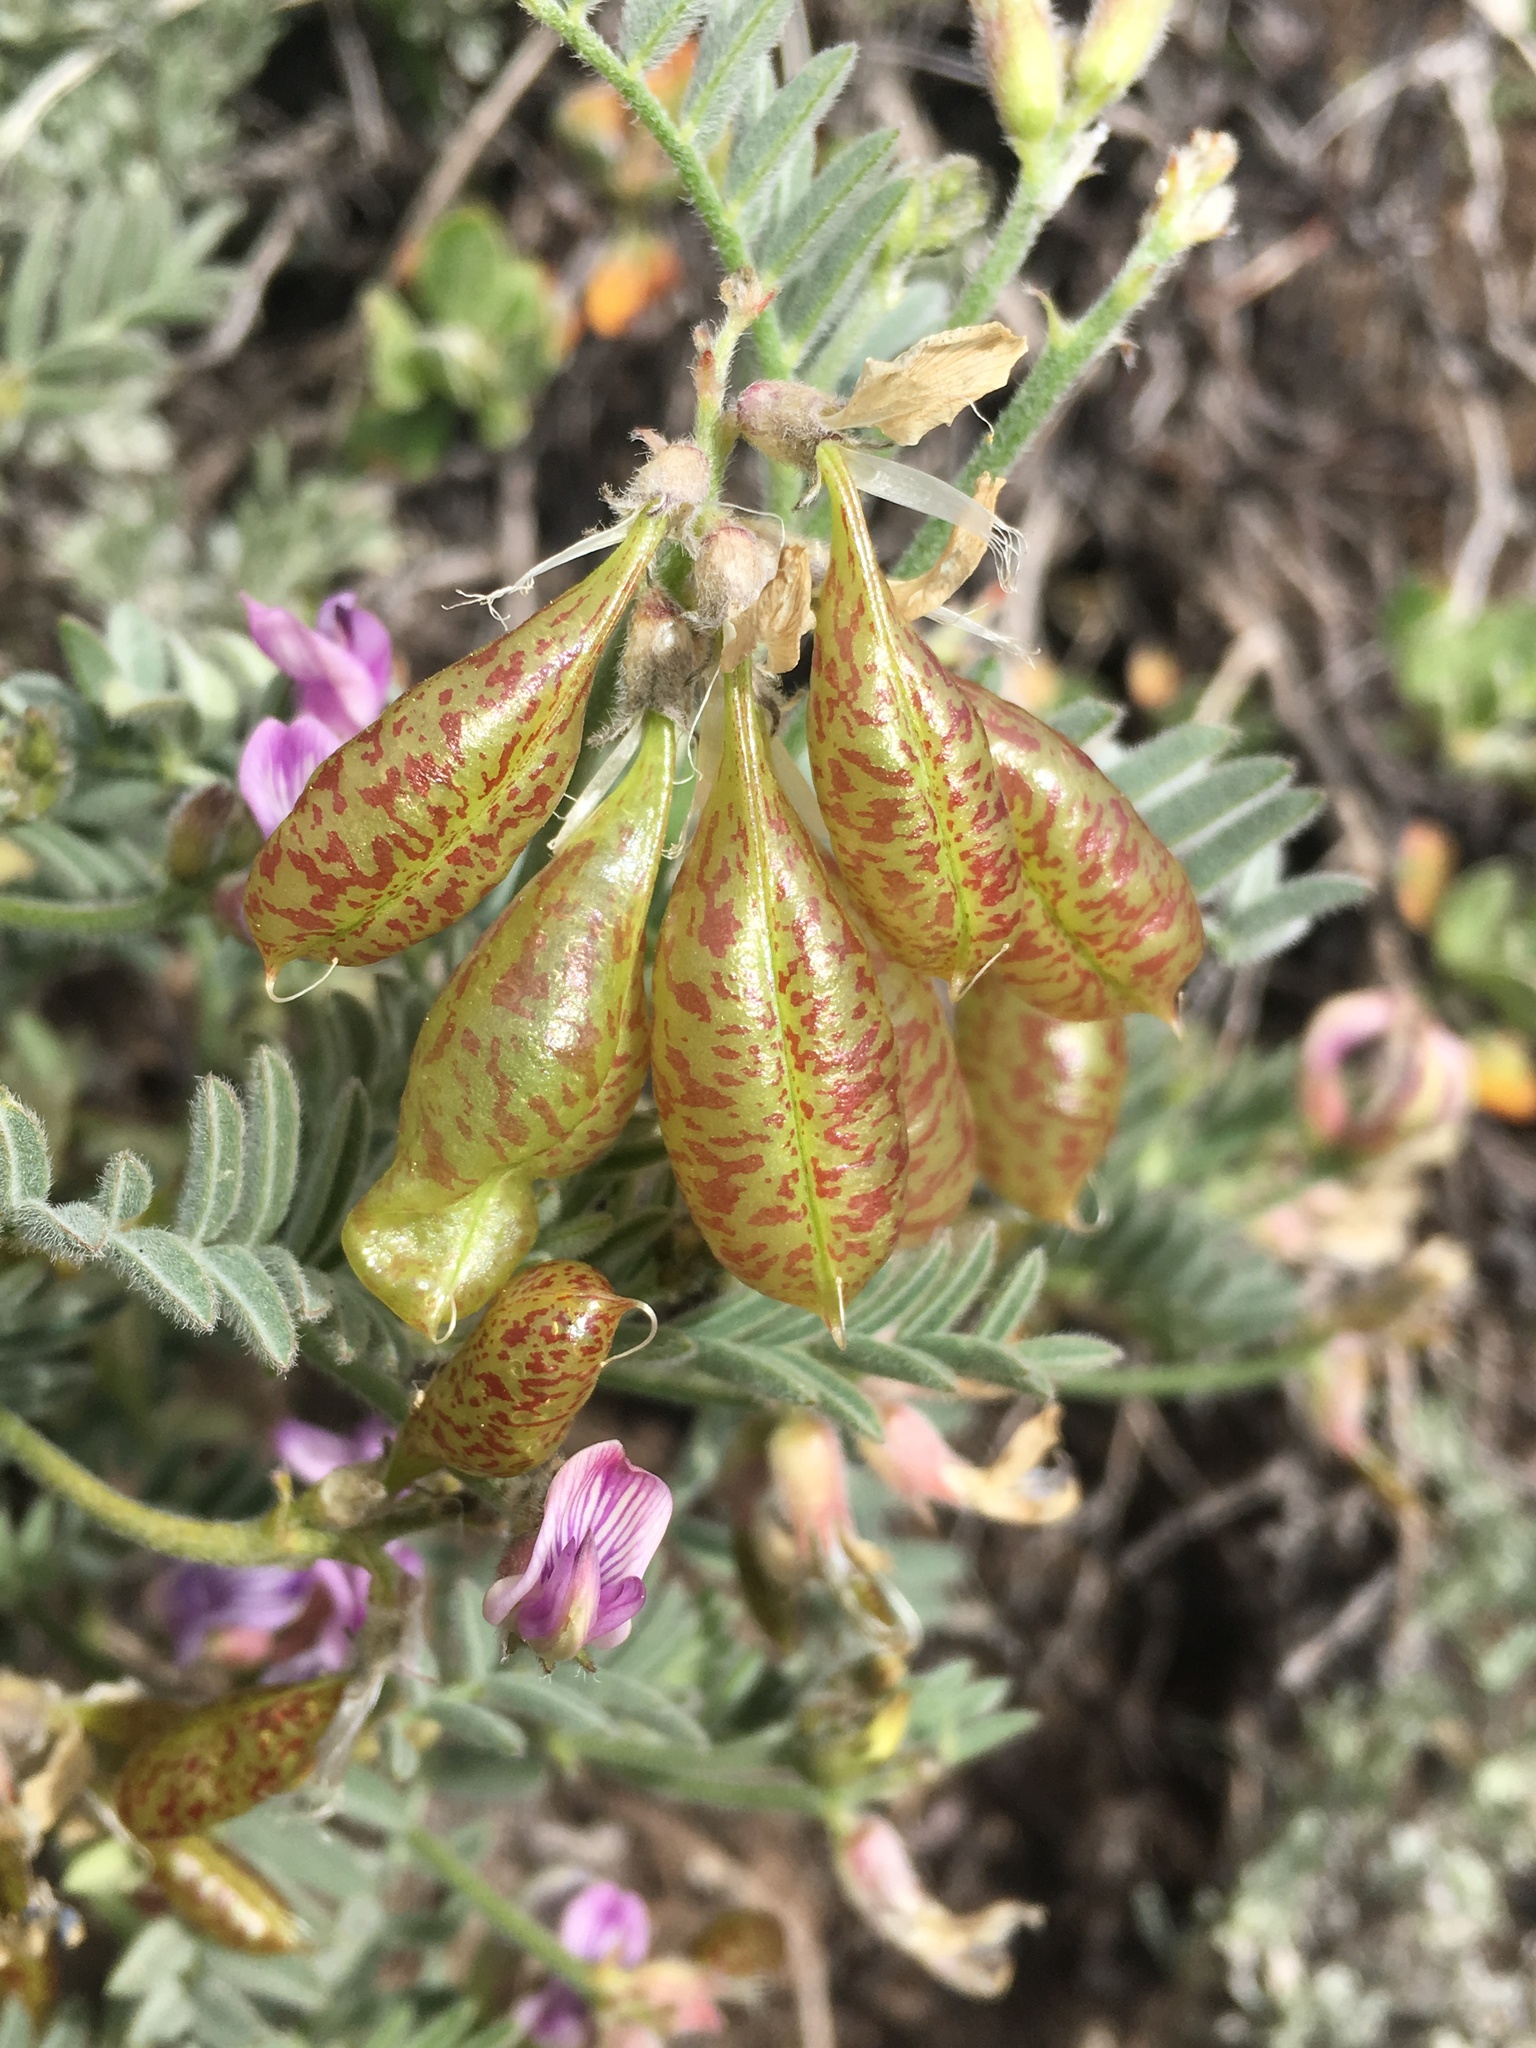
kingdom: Plantae
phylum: Tracheophyta
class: Magnoliopsida
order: Fabales
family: Fabaceae
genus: Astragalus
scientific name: Astragalus whitneyi
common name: Balloonpod milkvetch
